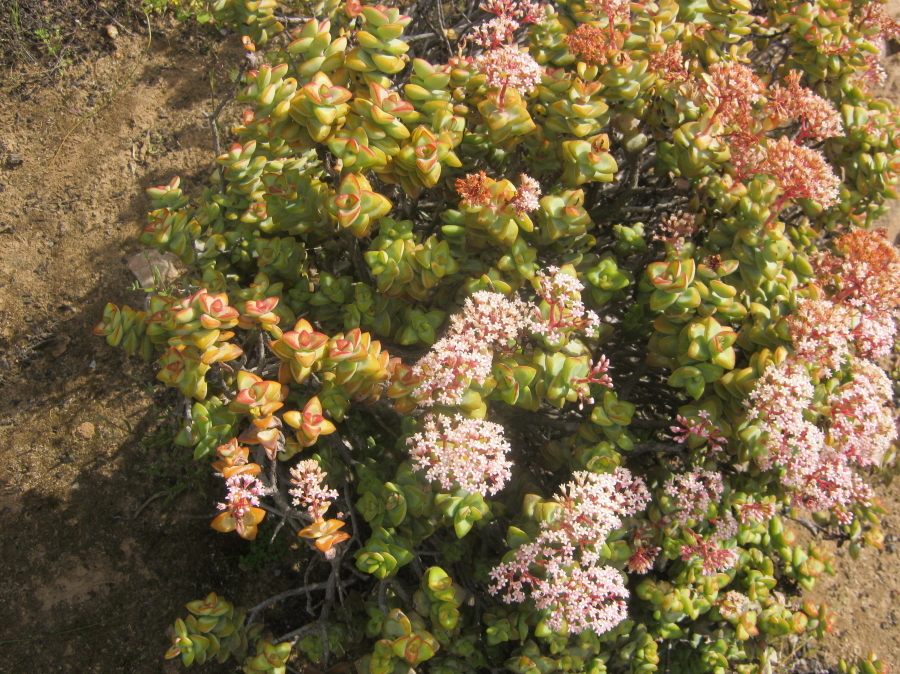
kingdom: Plantae
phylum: Tracheophyta
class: Magnoliopsida
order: Saxifragales
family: Crassulaceae
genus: Crassula
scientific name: Crassula rupestris
